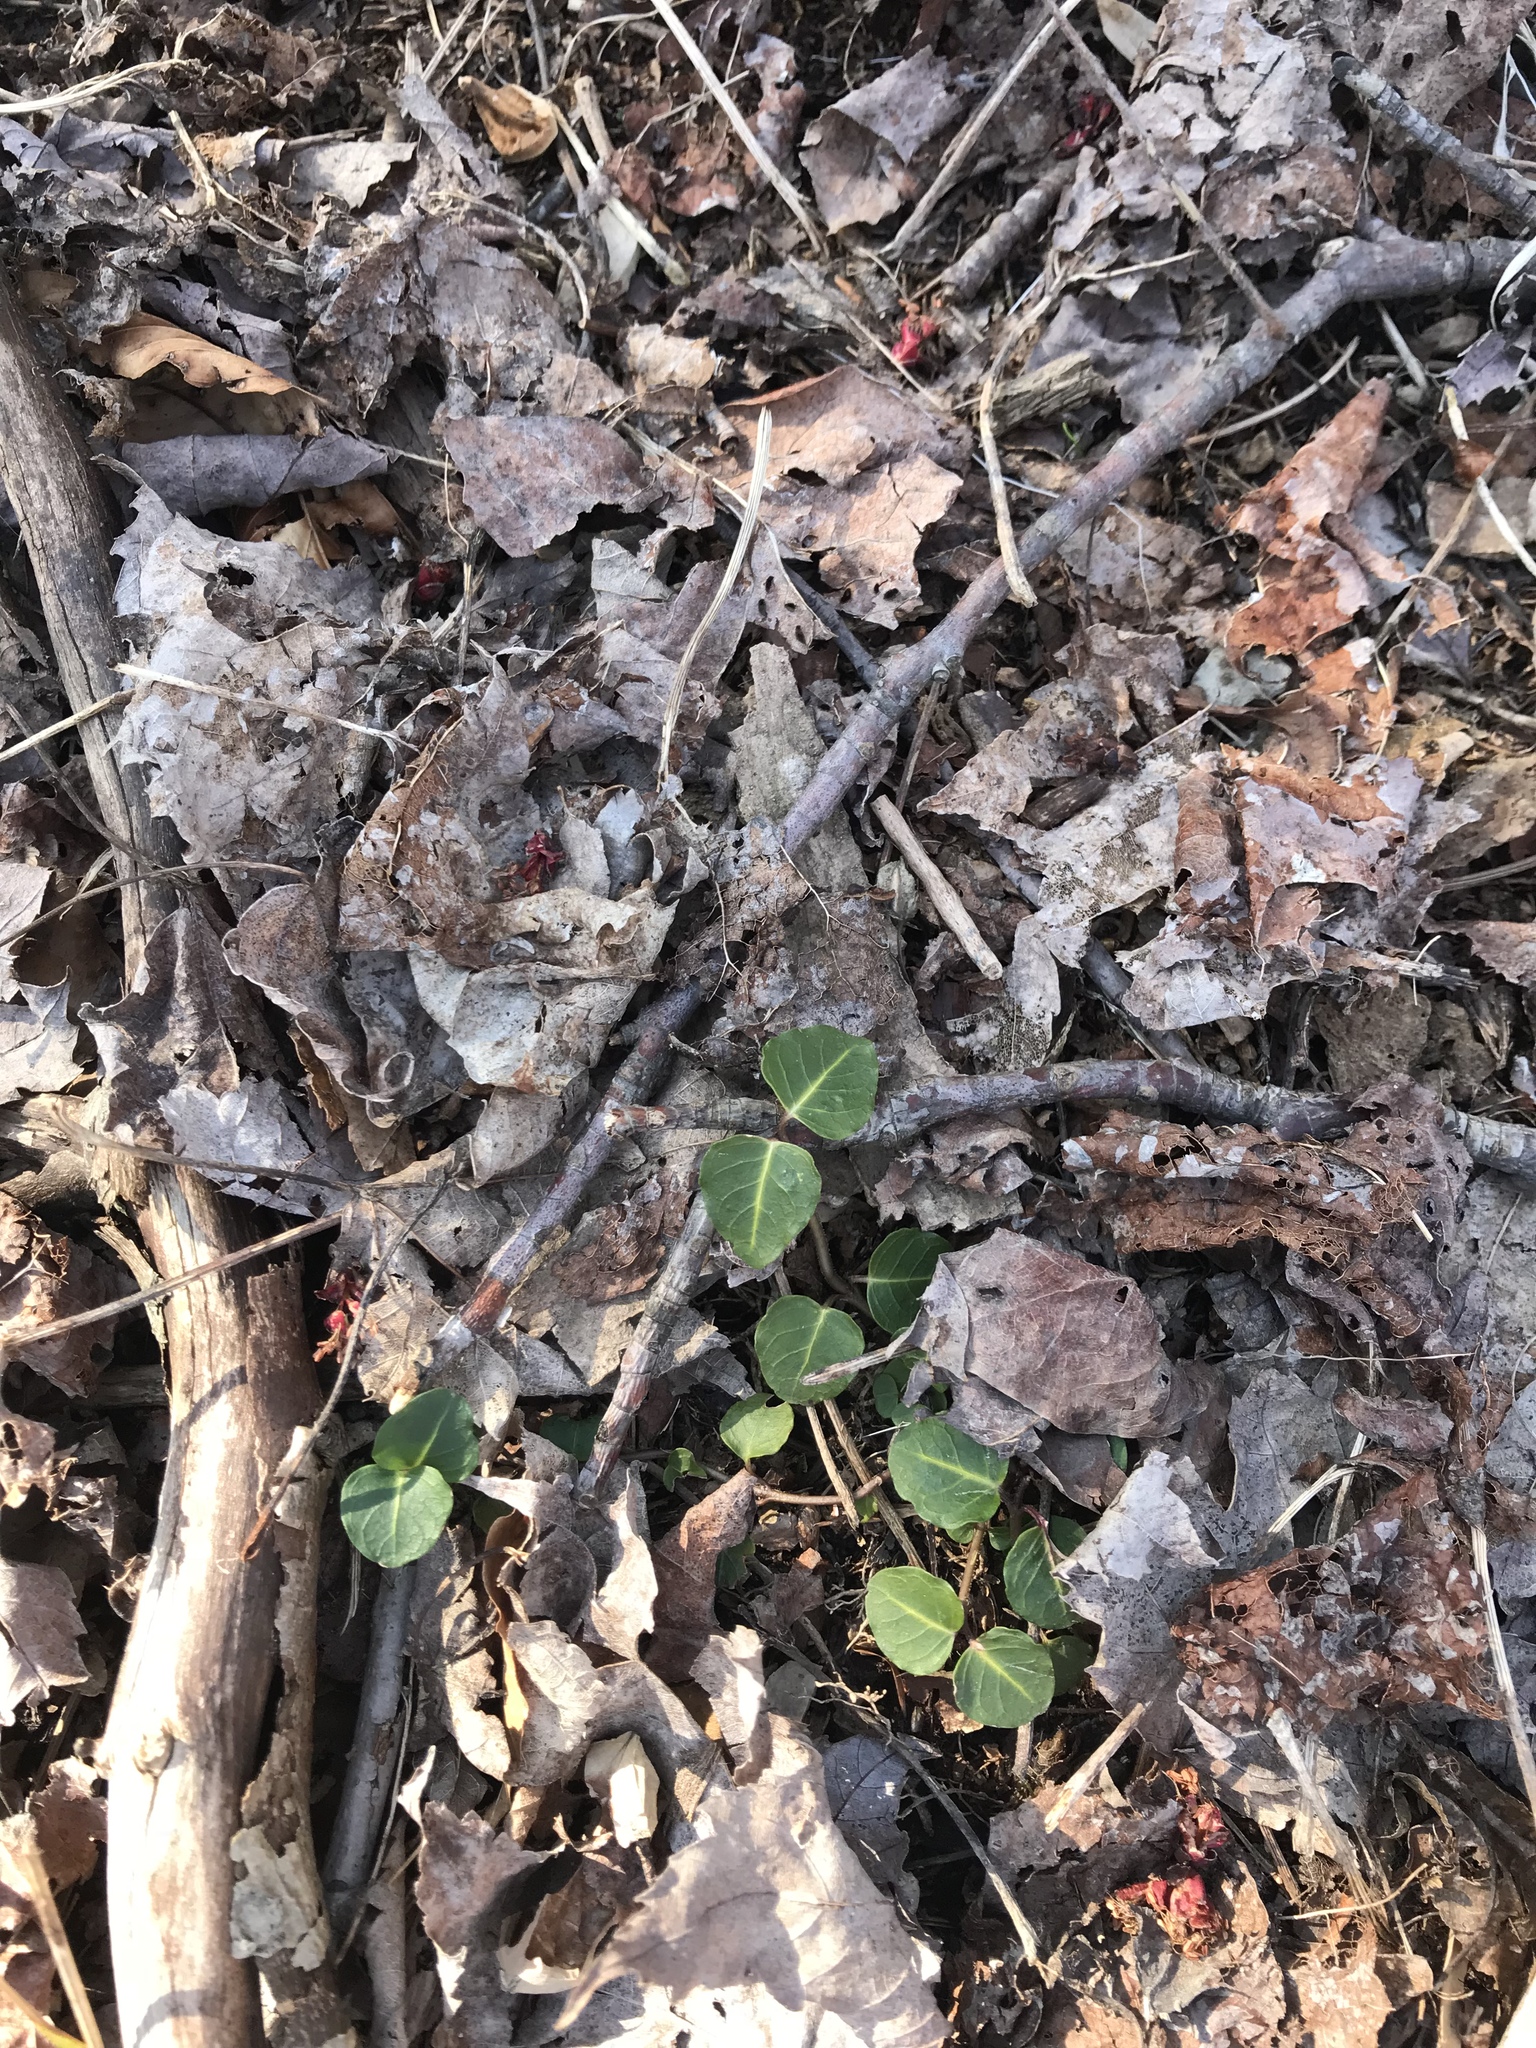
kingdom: Plantae
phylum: Tracheophyta
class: Magnoliopsida
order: Gentianales
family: Rubiaceae
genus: Mitchella
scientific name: Mitchella repens
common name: Partridge-berry
